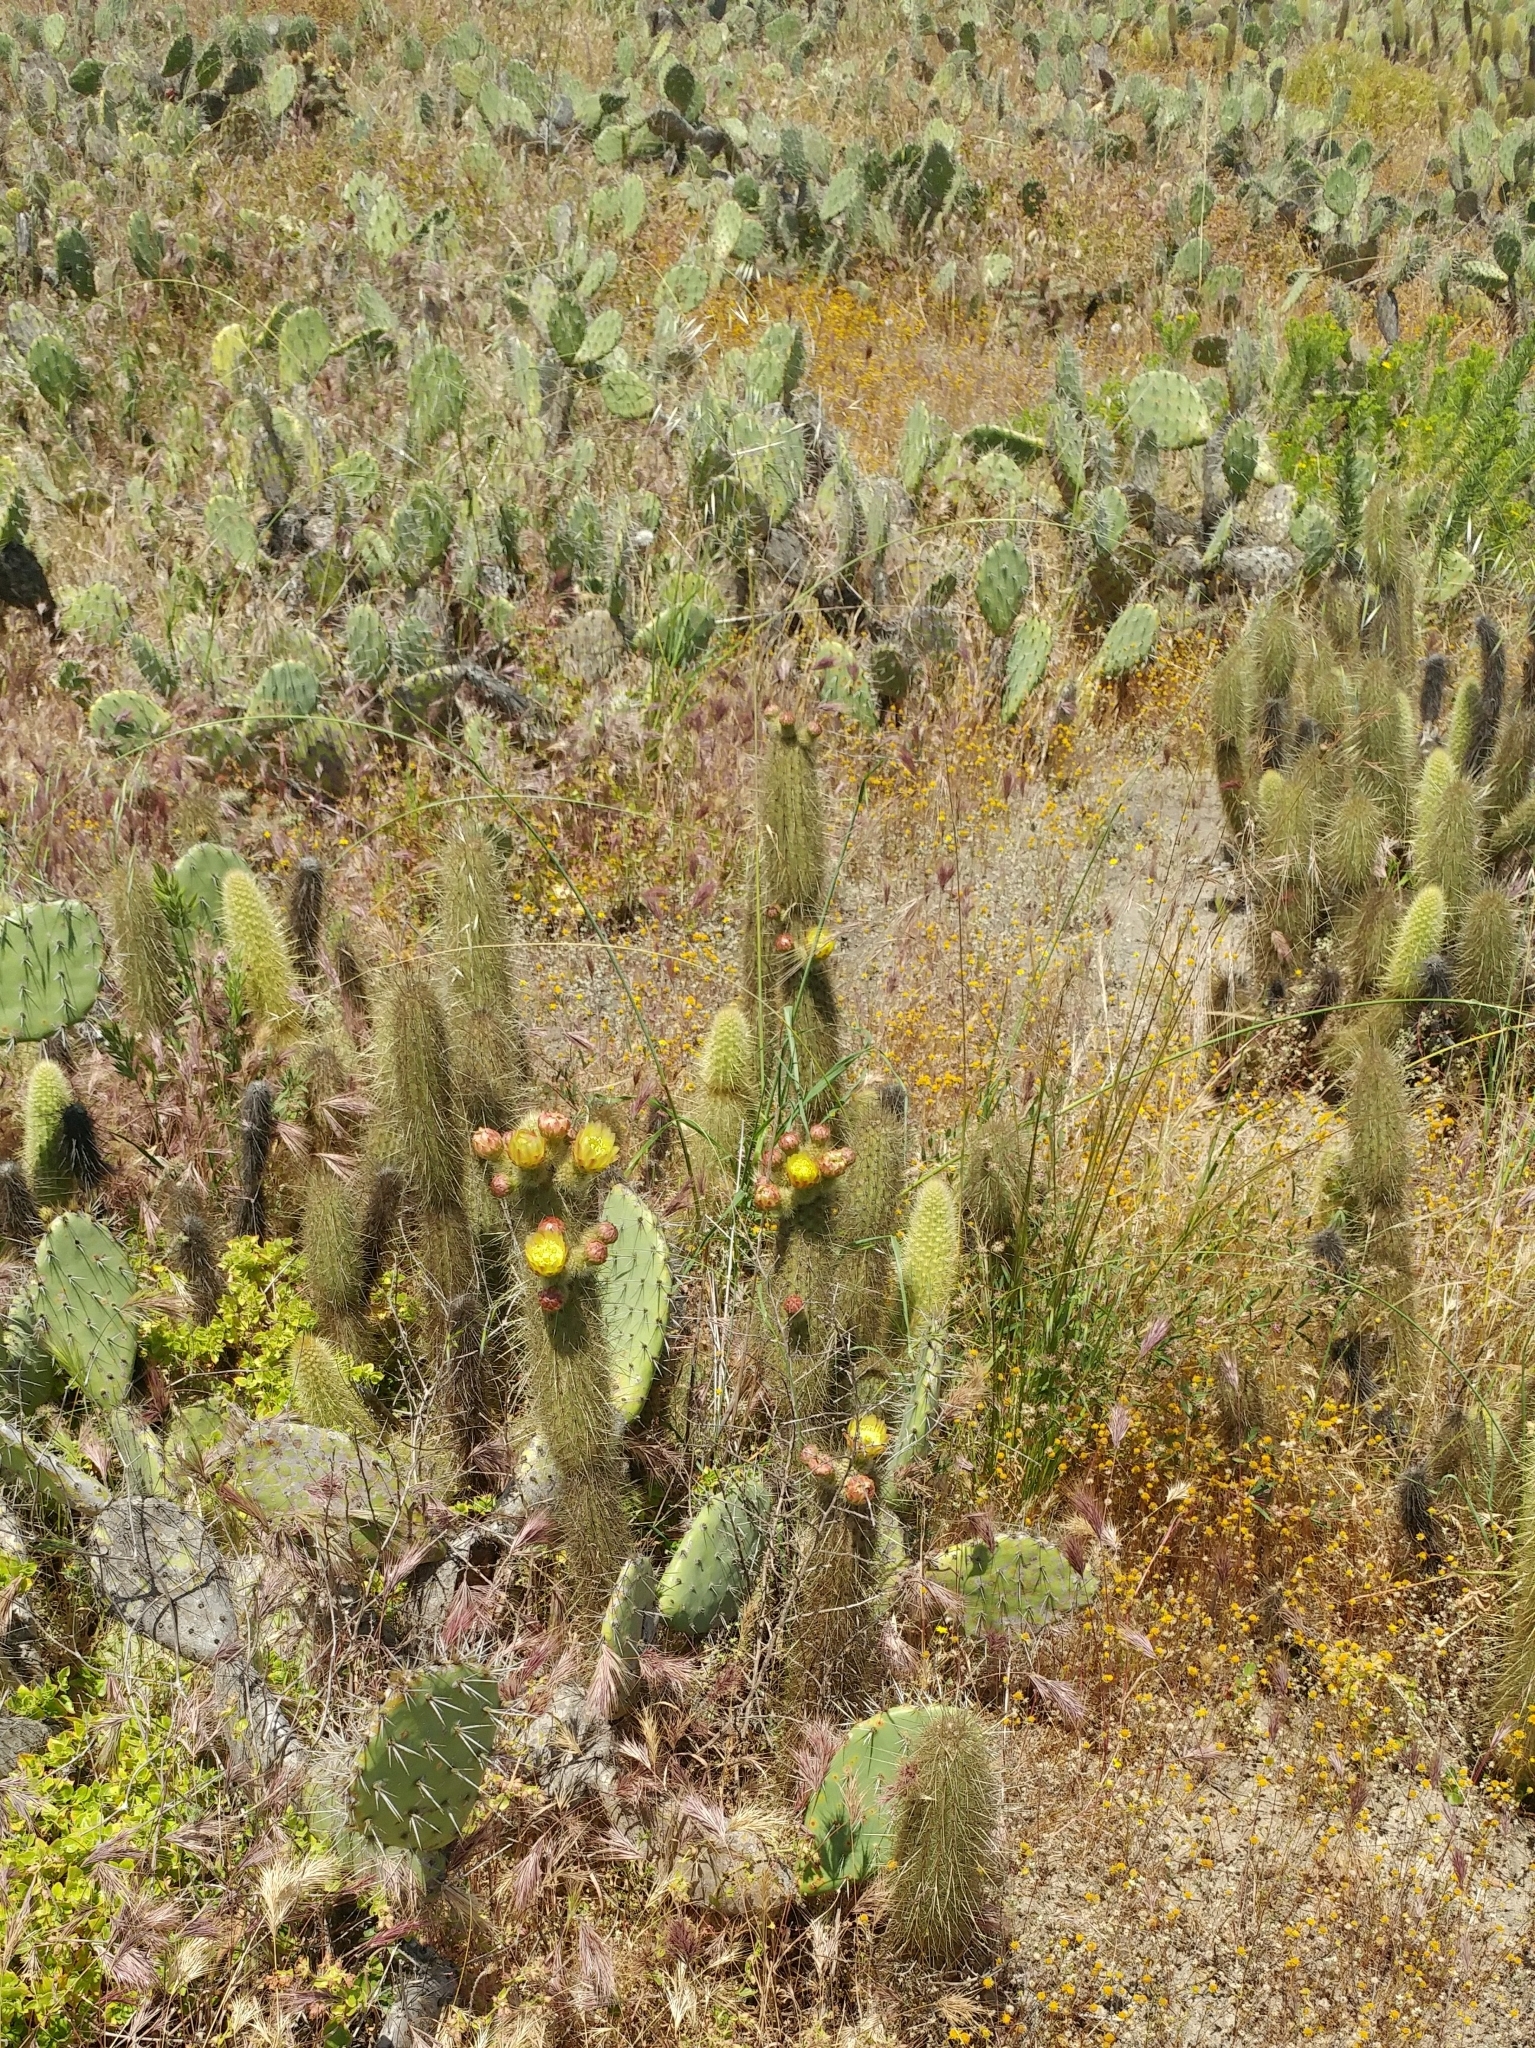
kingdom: Plantae
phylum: Tracheophyta
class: Magnoliopsida
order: Caryophyllales
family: Cactaceae
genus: Bergerocactus
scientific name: Bergerocactus emoryi
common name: Golden snakecactus
